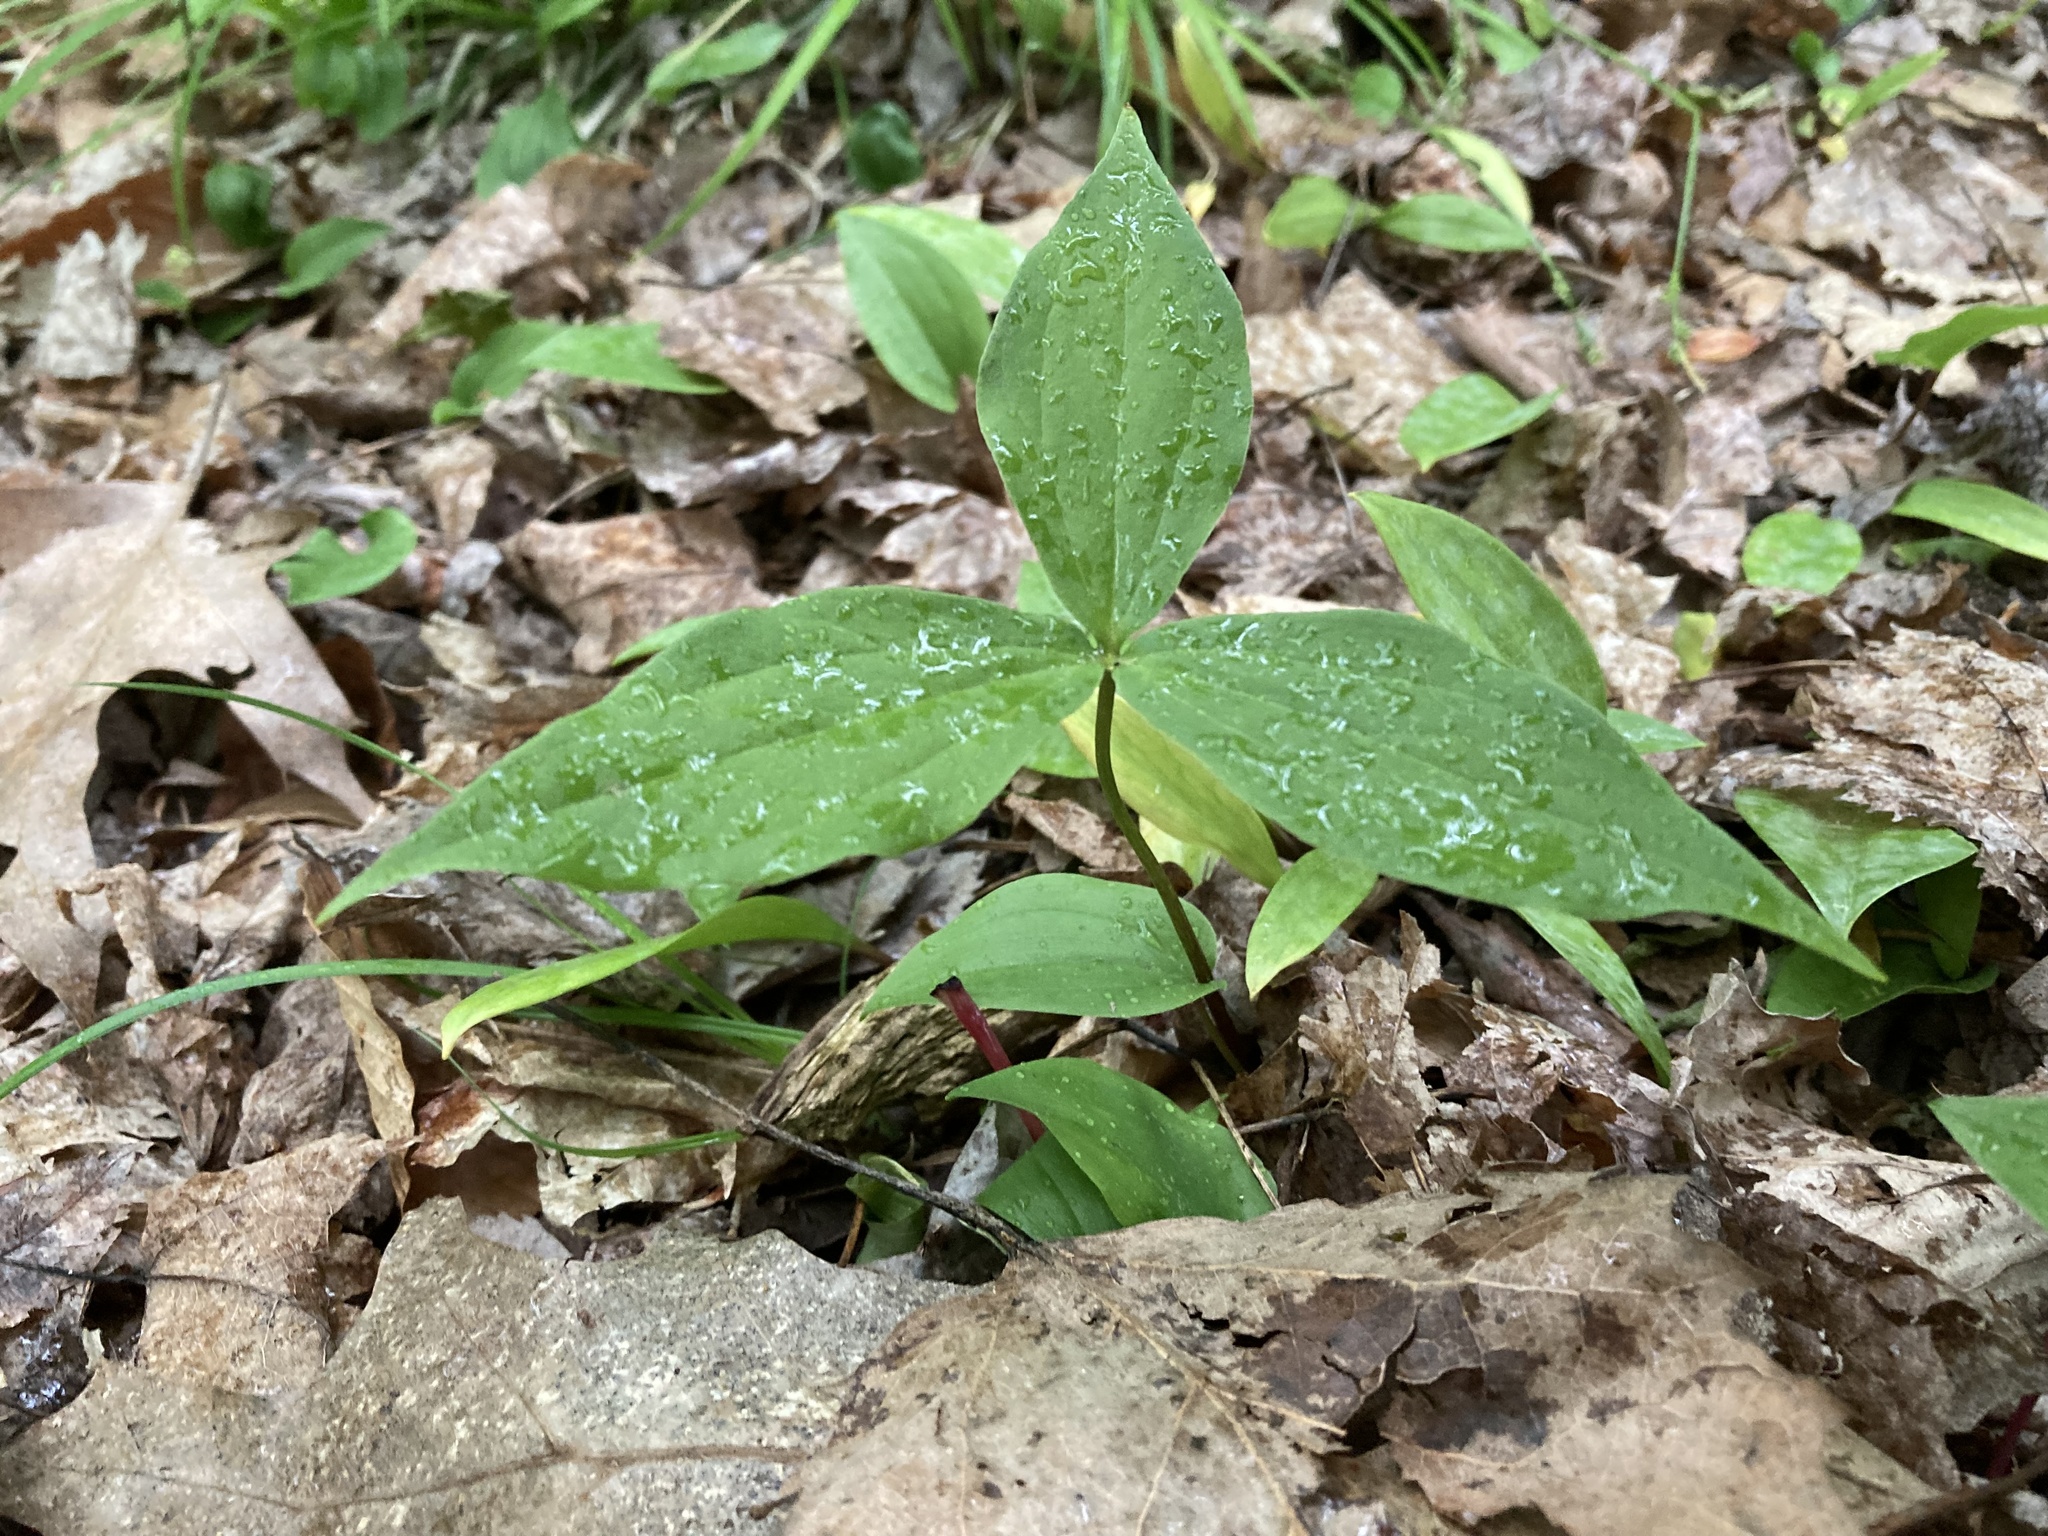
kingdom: Plantae
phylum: Tracheophyta
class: Liliopsida
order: Liliales
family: Liliaceae
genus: Medeola
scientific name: Medeola virginiana
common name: Indian cucumber-root
